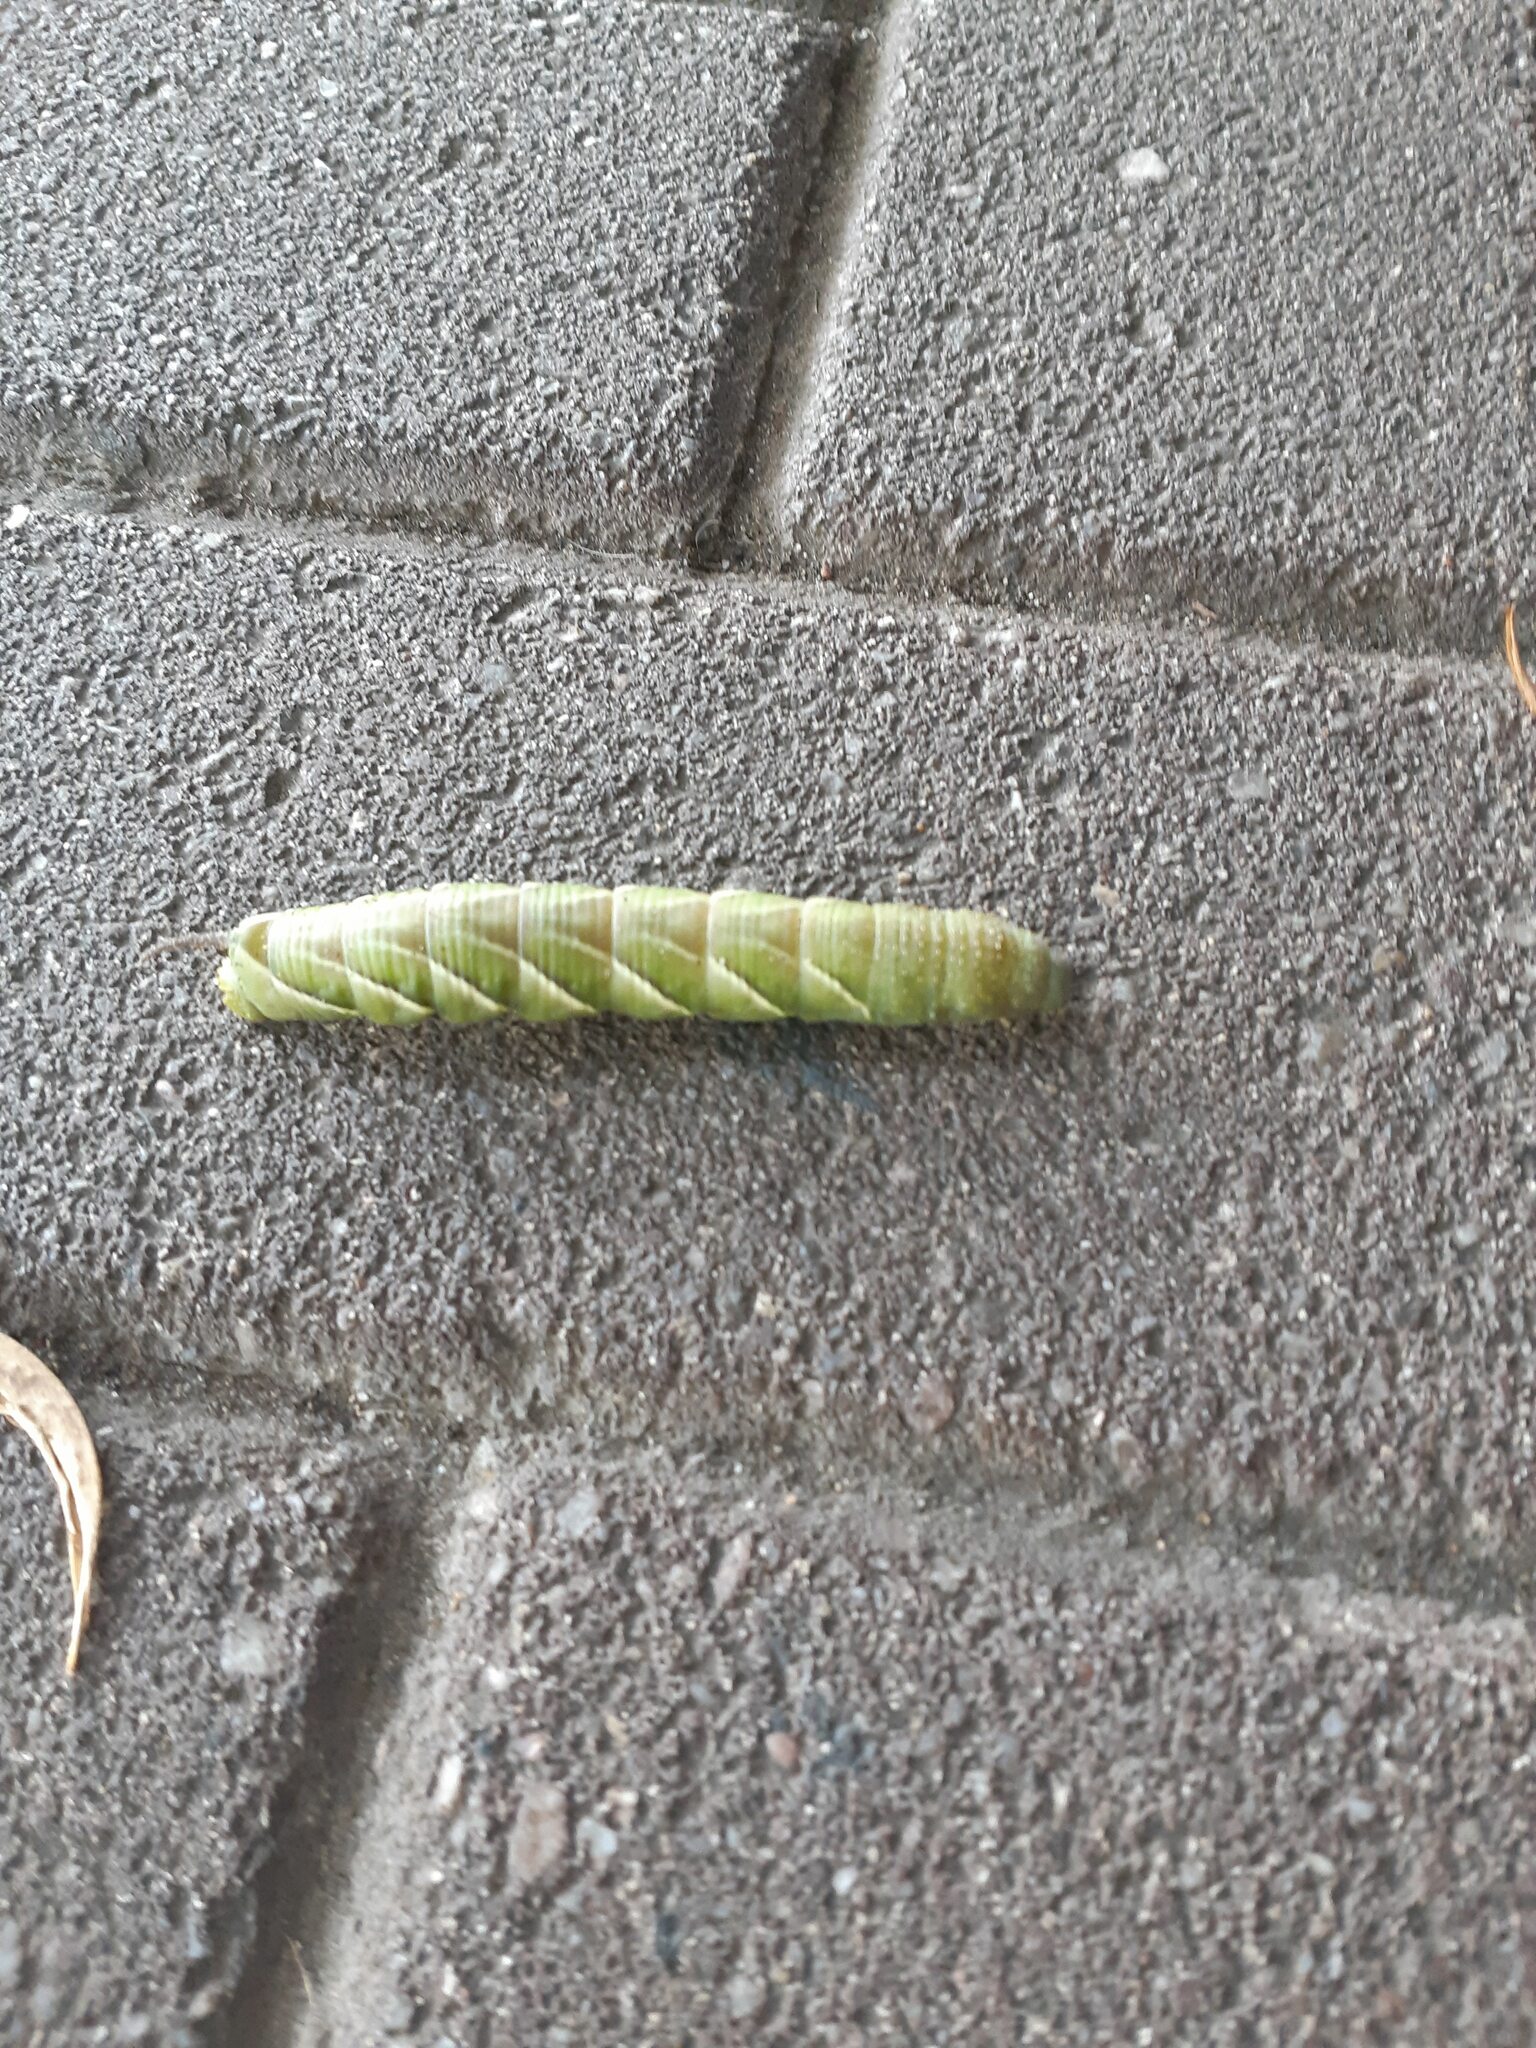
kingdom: Animalia
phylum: Arthropoda
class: Insecta
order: Lepidoptera
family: Sphingidae
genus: Psilogramma
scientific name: Psilogramma casuarinae
